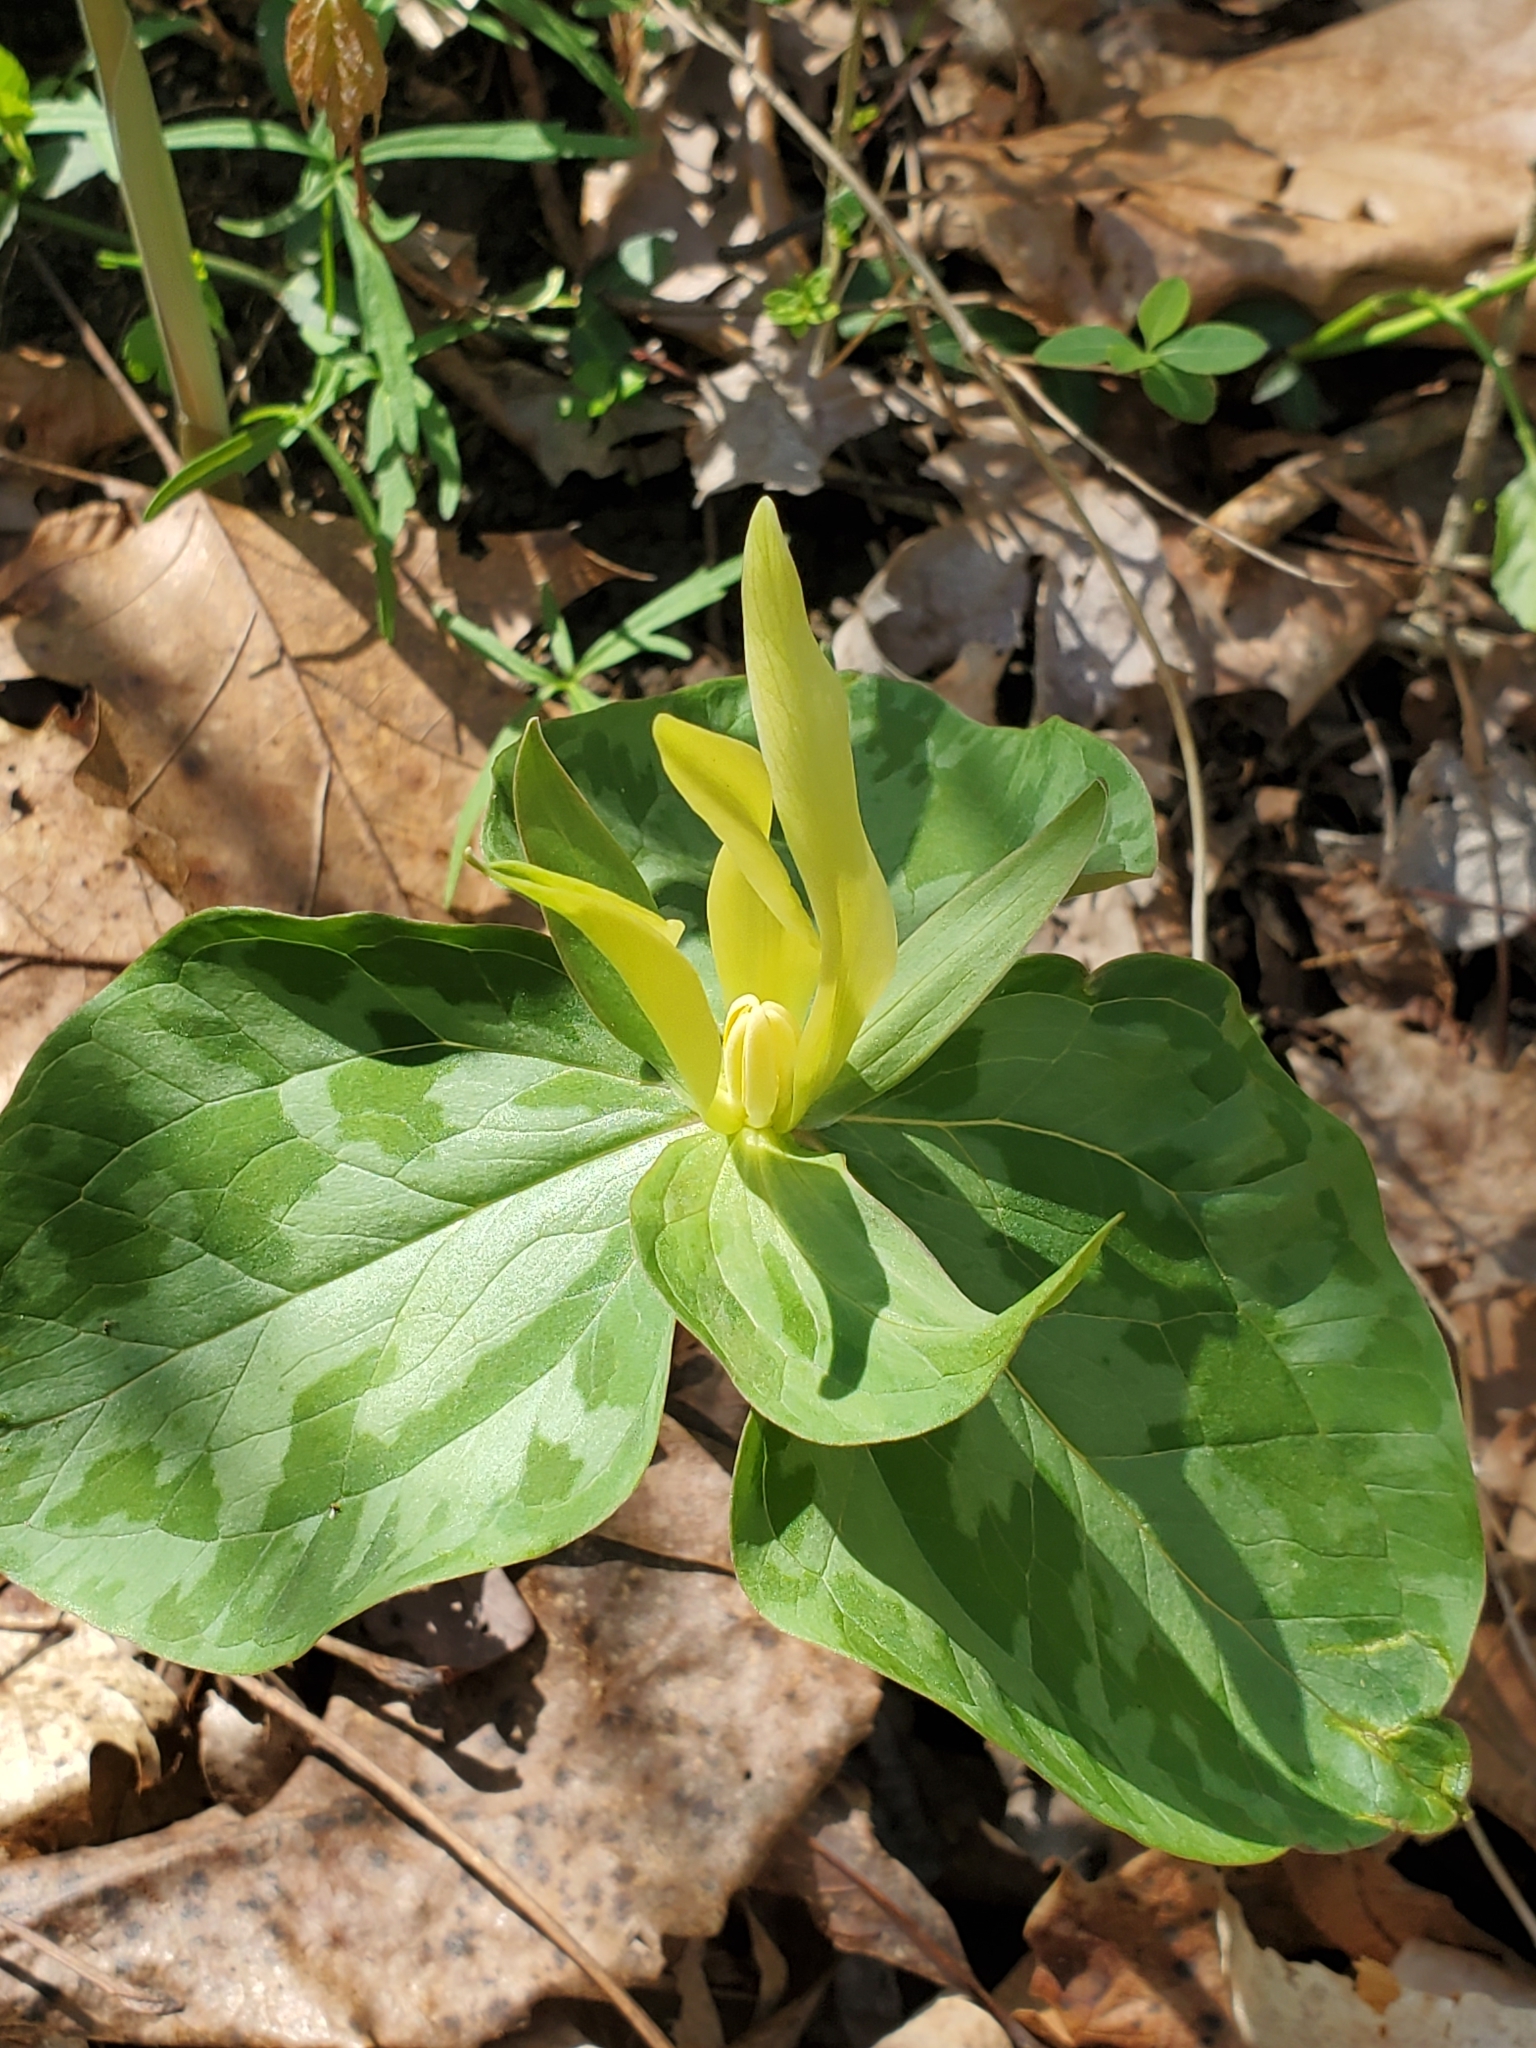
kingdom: Plantae
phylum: Tracheophyta
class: Liliopsida
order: Liliales
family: Melanthiaceae
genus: Trillium
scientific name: Trillium luteum
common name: Wax trillium
